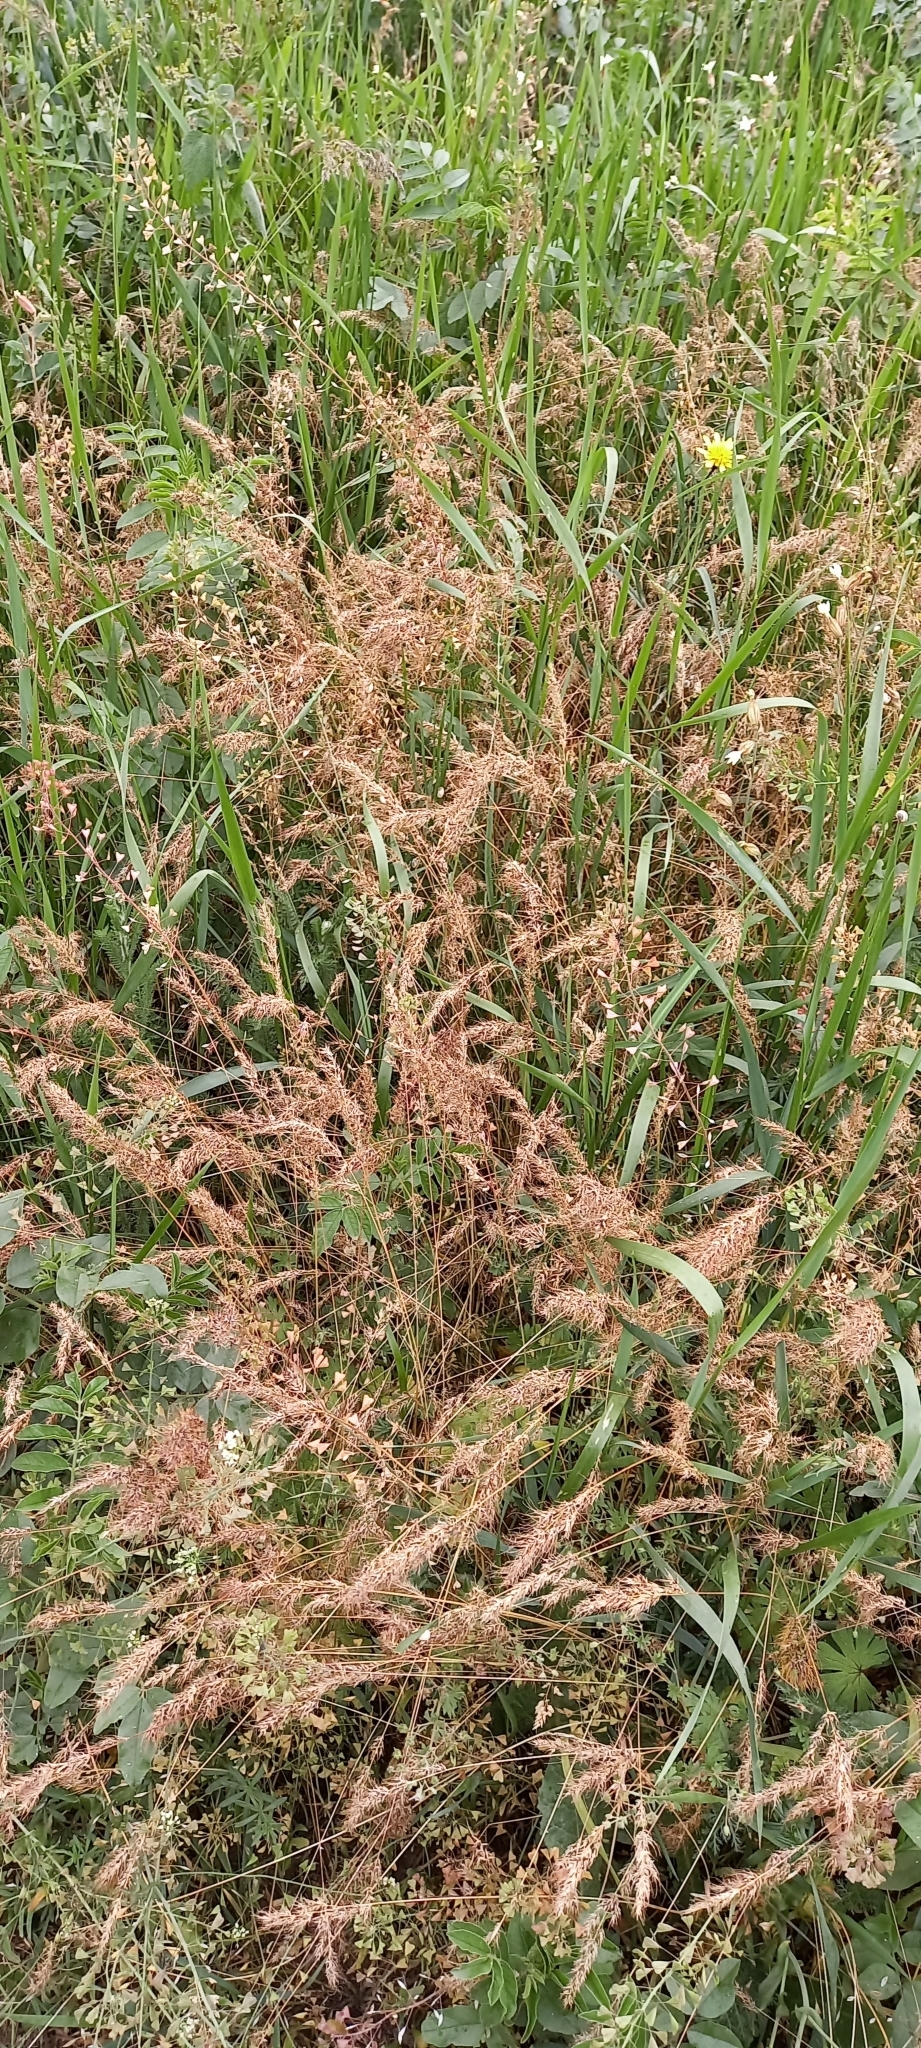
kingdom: Plantae
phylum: Tracheophyta
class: Liliopsida
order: Poales
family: Poaceae
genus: Poa
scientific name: Poa bulbosa
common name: Bulbous bluegrass
